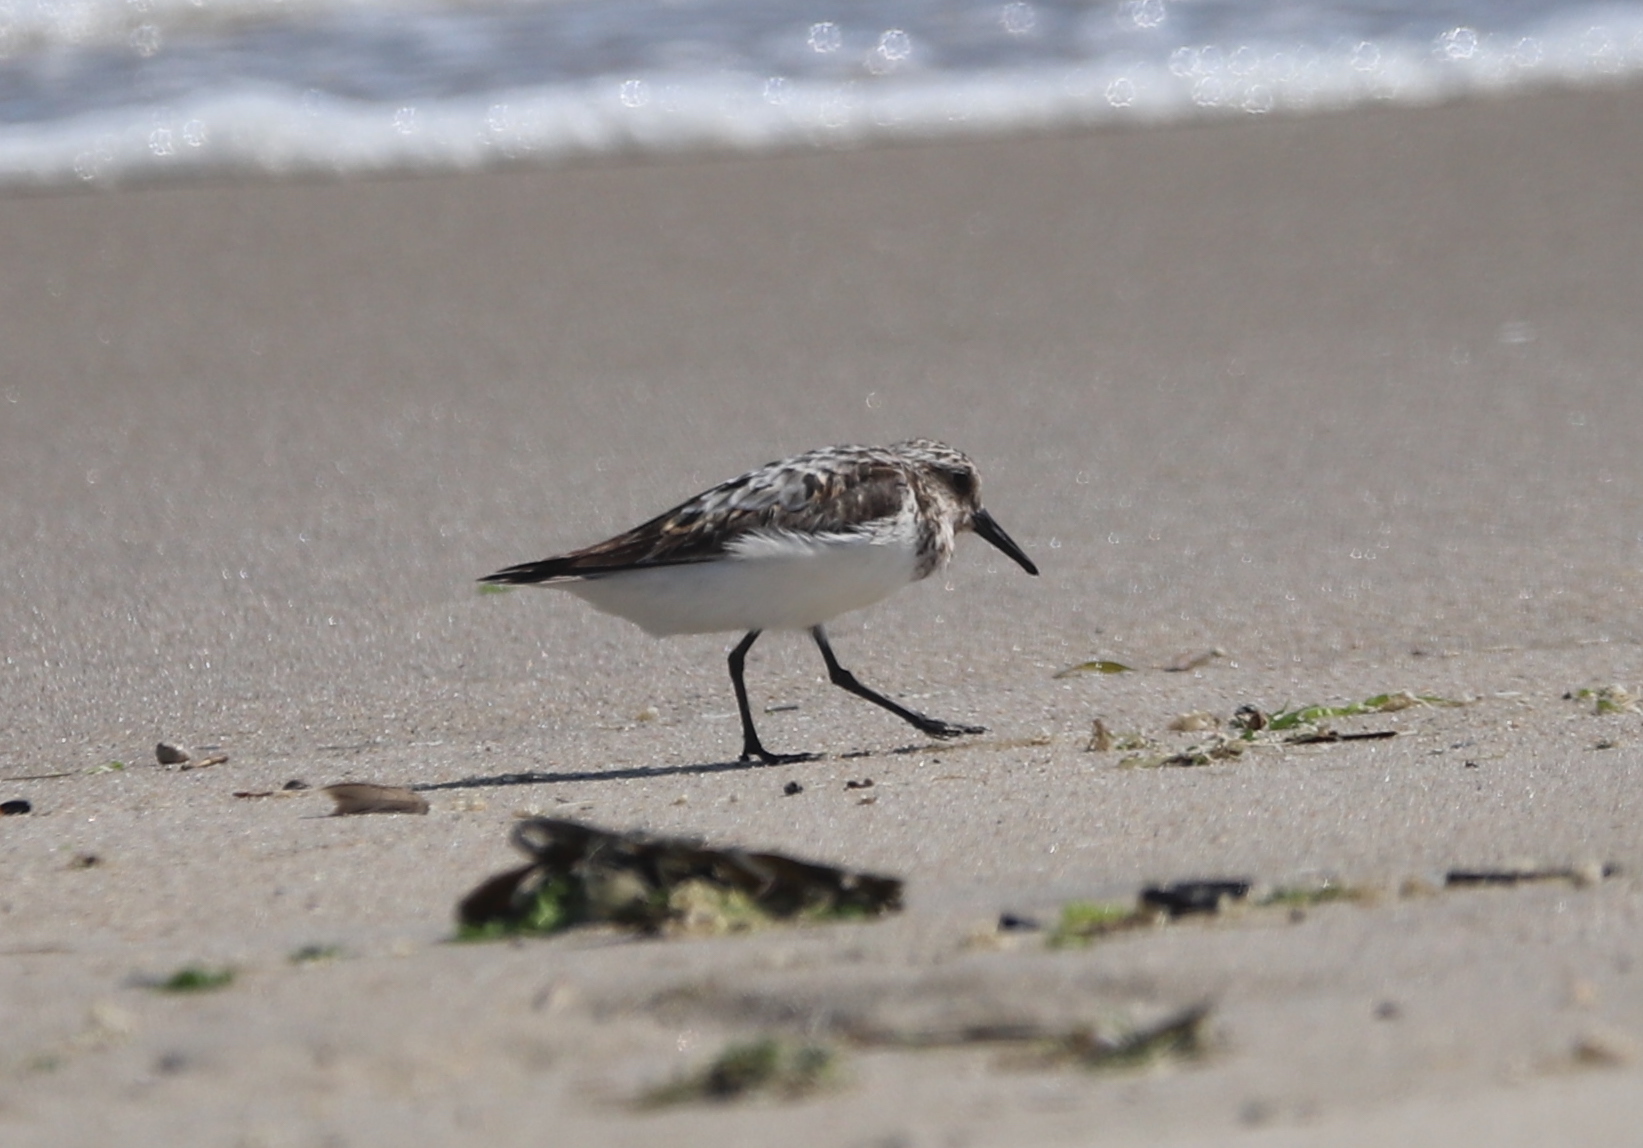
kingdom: Animalia
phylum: Chordata
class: Aves
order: Charadriiformes
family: Scolopacidae
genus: Calidris
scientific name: Calidris alba
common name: Sanderling
